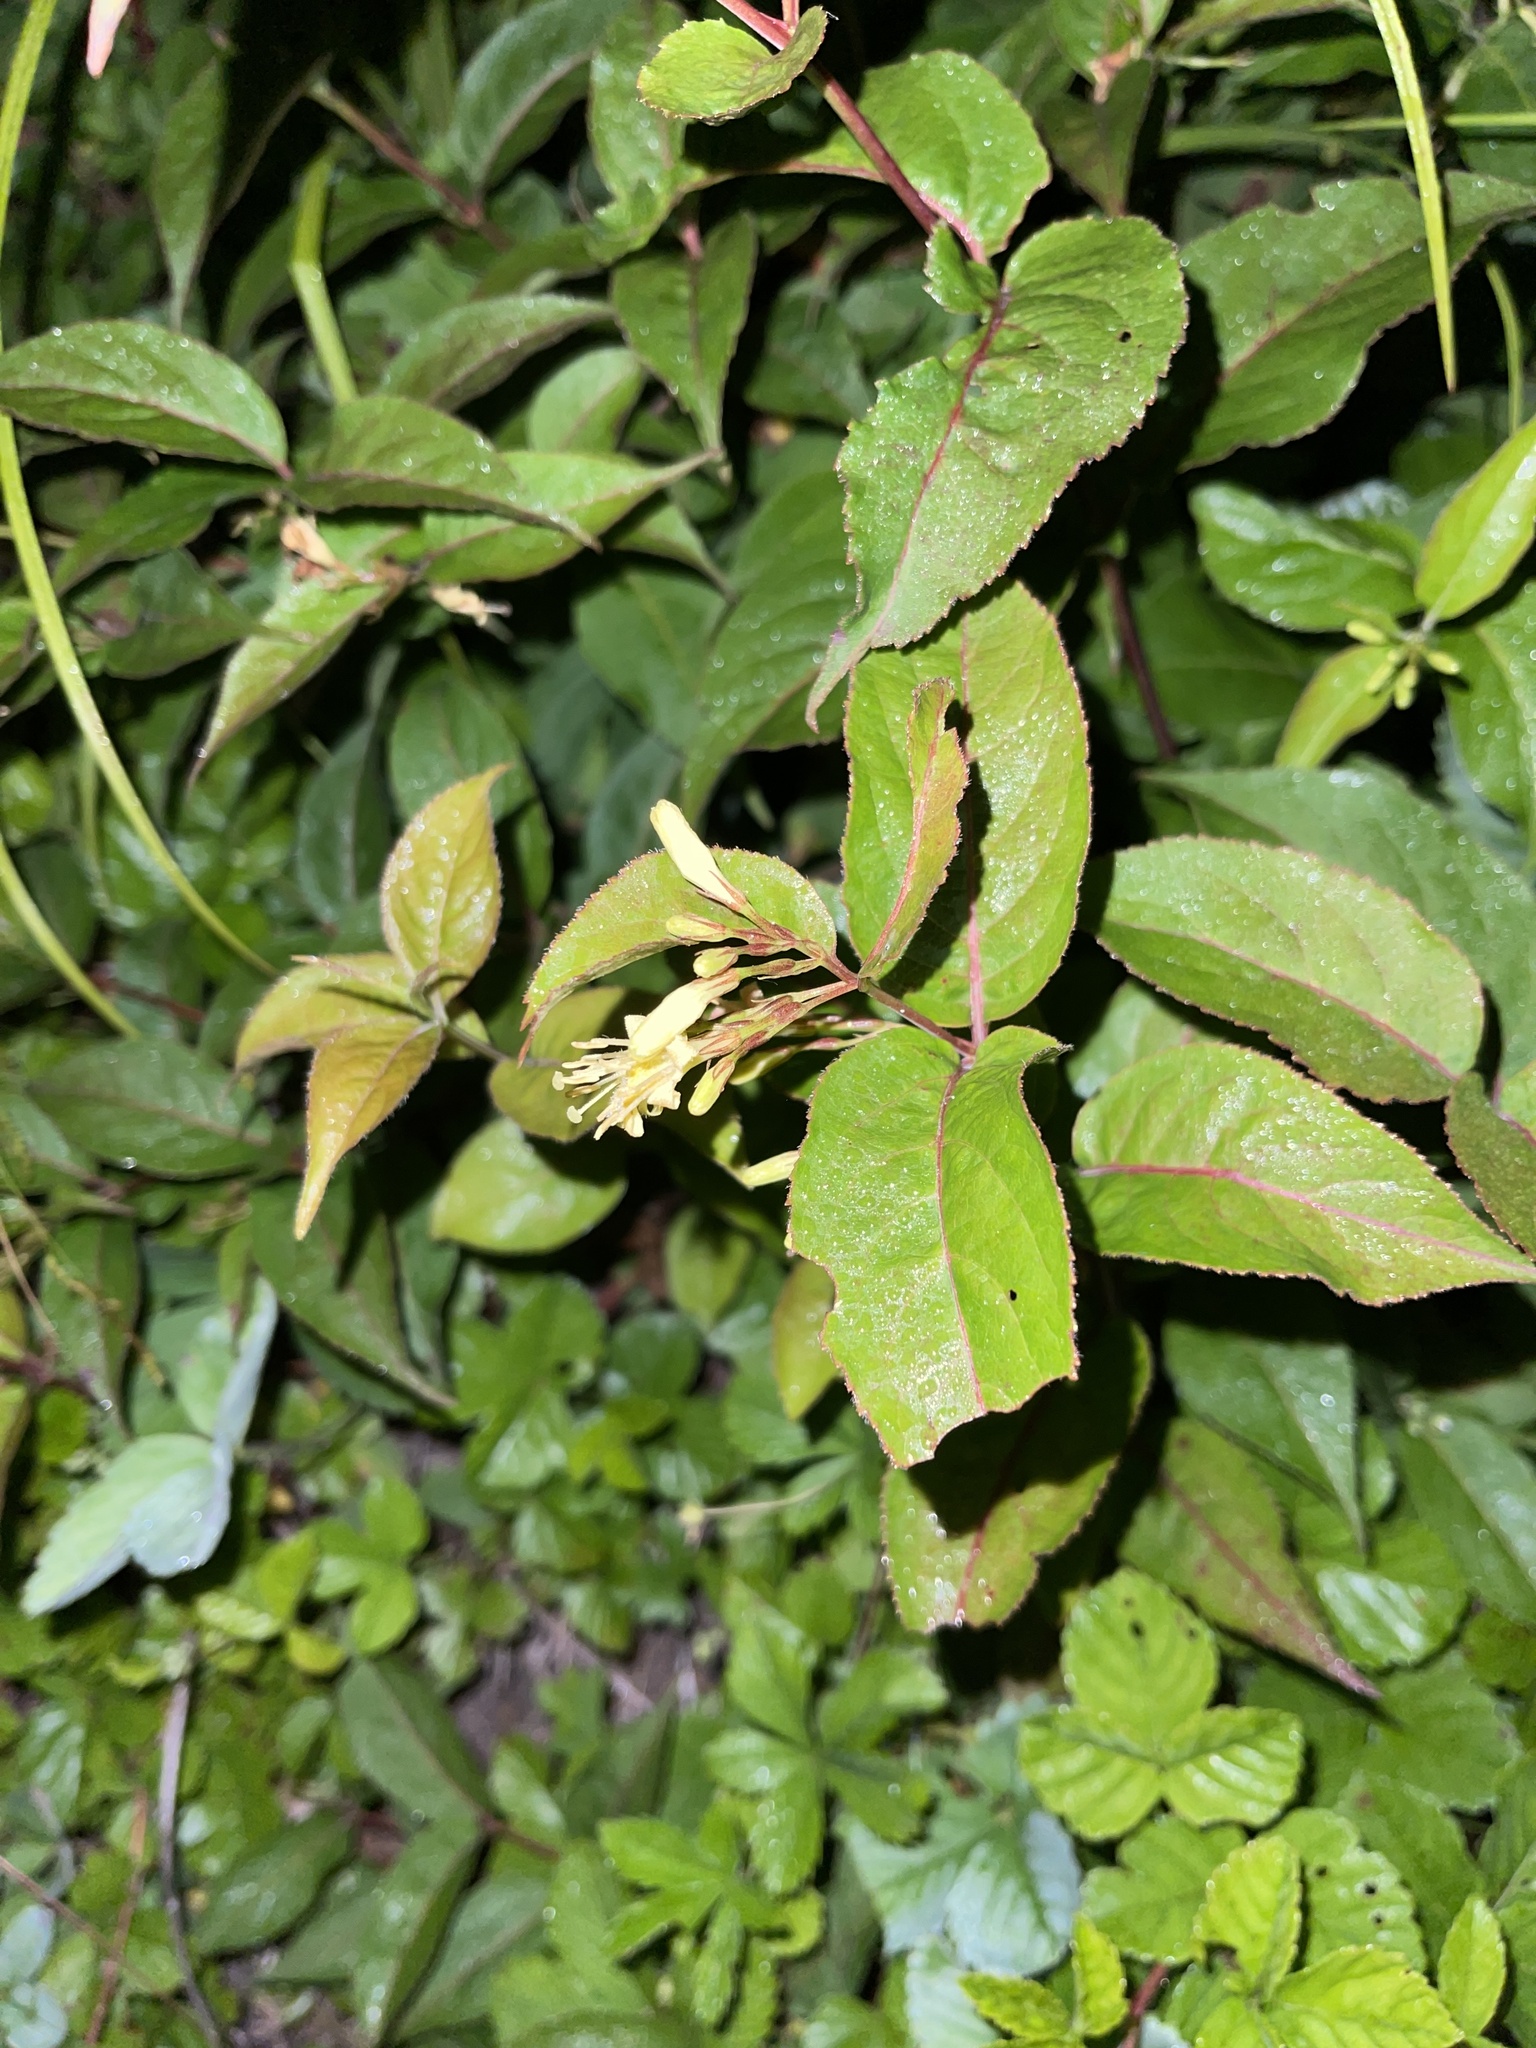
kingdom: Plantae
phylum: Tracheophyta
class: Magnoliopsida
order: Dipsacales
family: Caprifoliaceae
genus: Diervilla
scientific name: Diervilla lonicera
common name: Bush-honeysuckle
